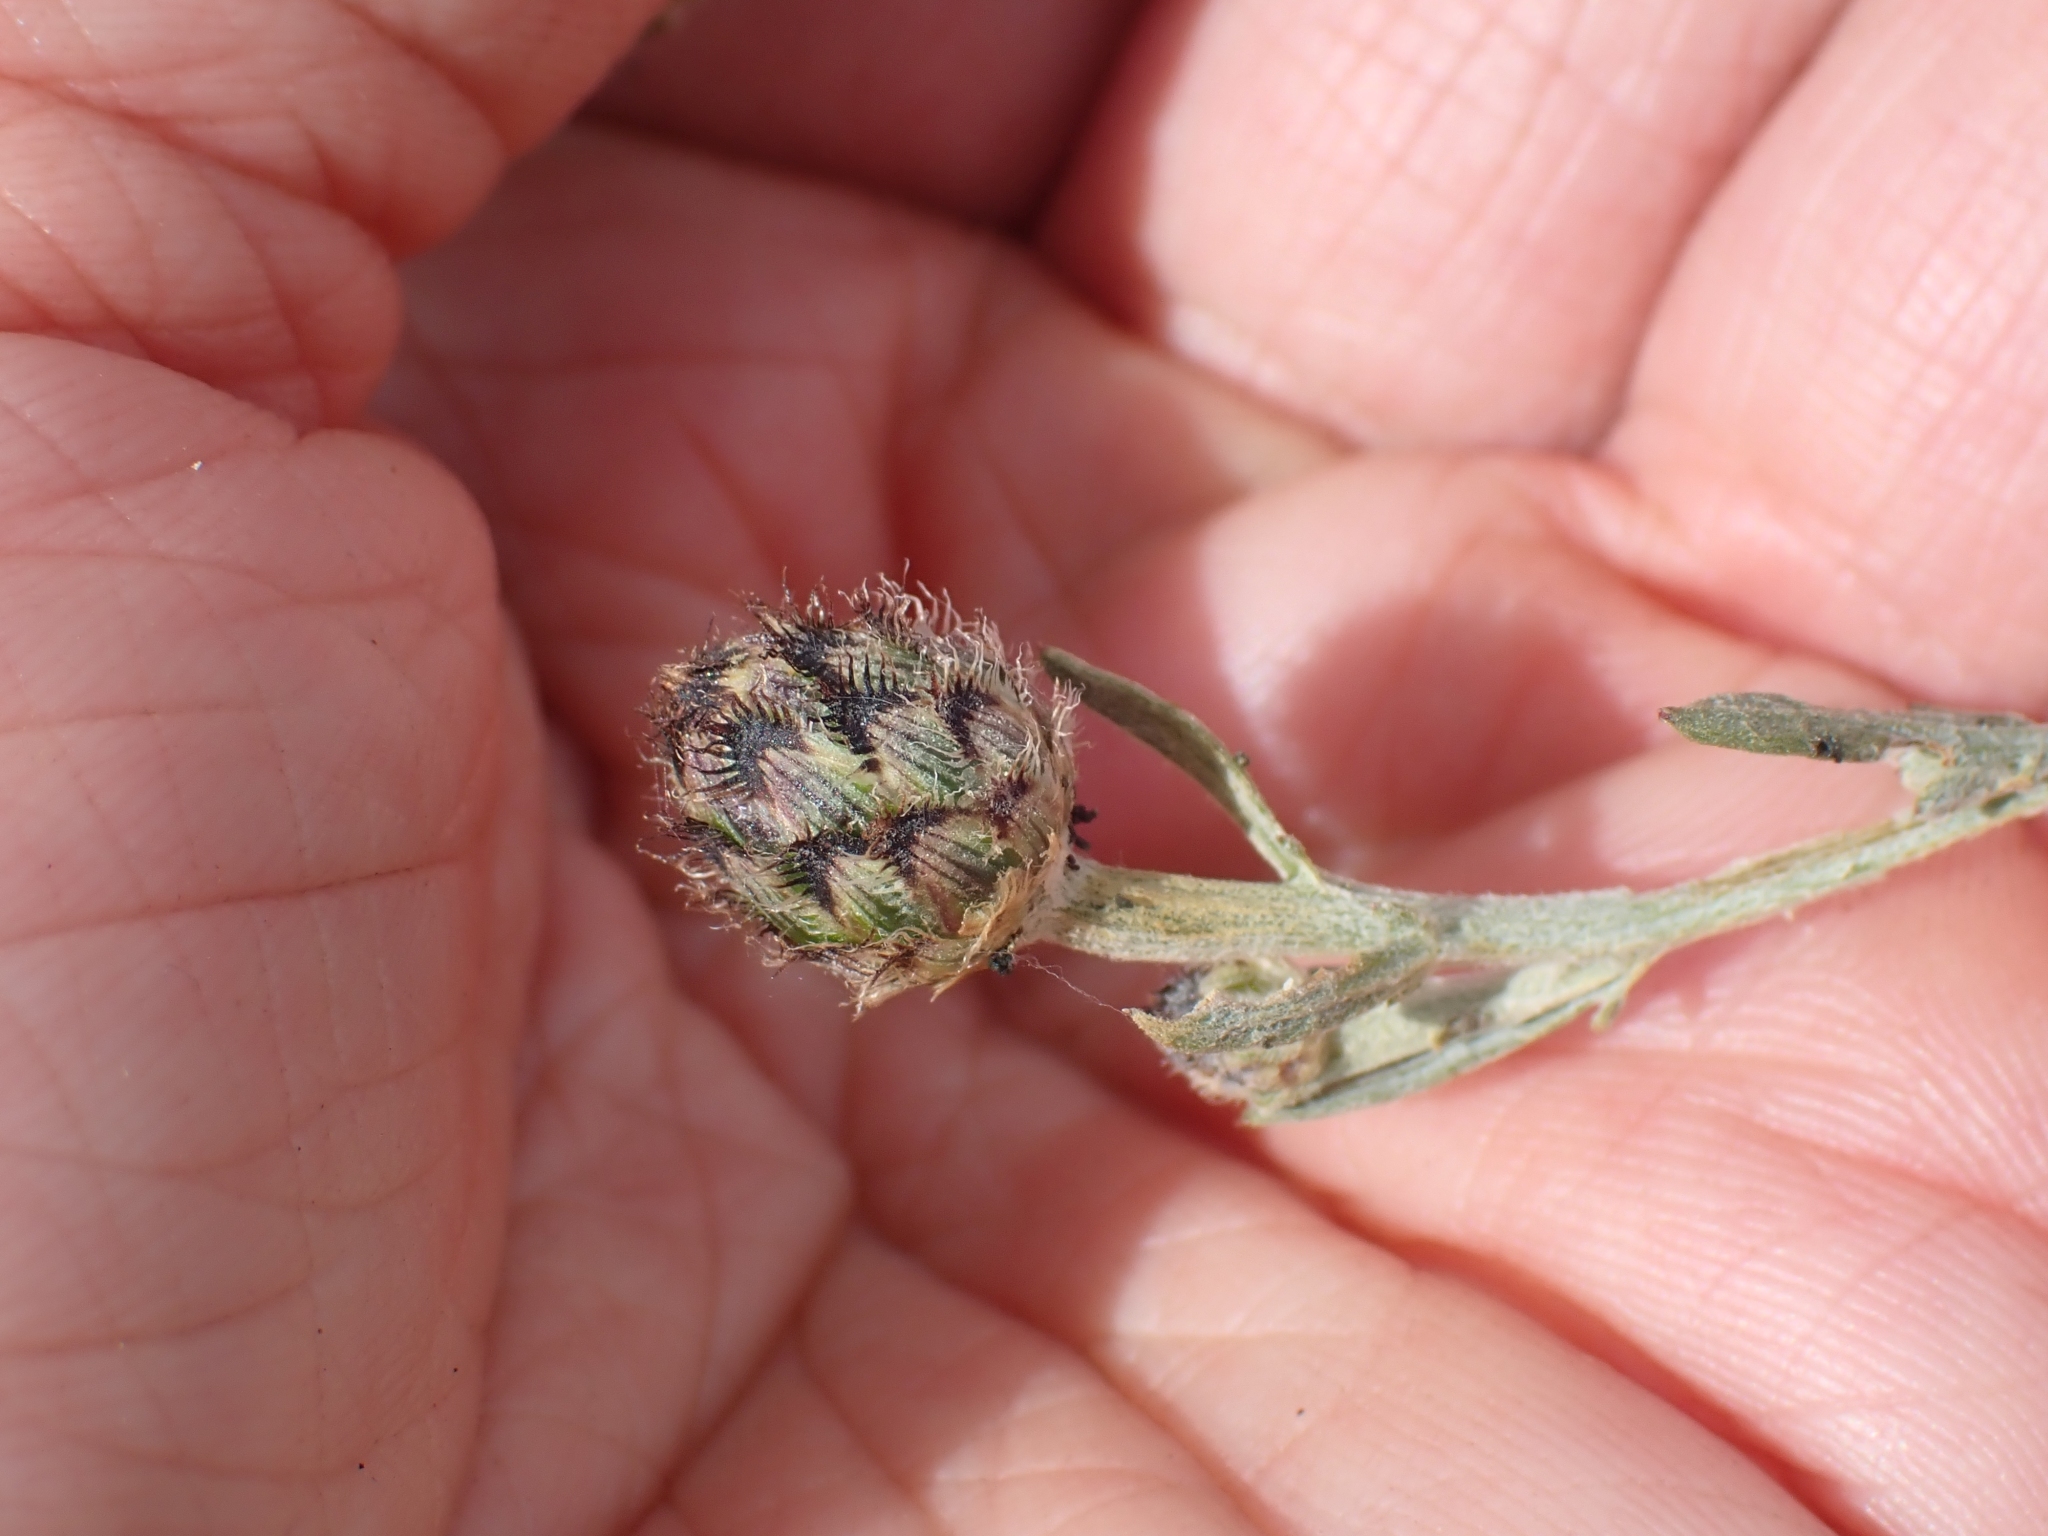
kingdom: Plantae
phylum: Tracheophyta
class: Magnoliopsida
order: Asterales
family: Asteraceae
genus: Centaurea
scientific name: Centaurea stoebe
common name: Spotted knapweed
